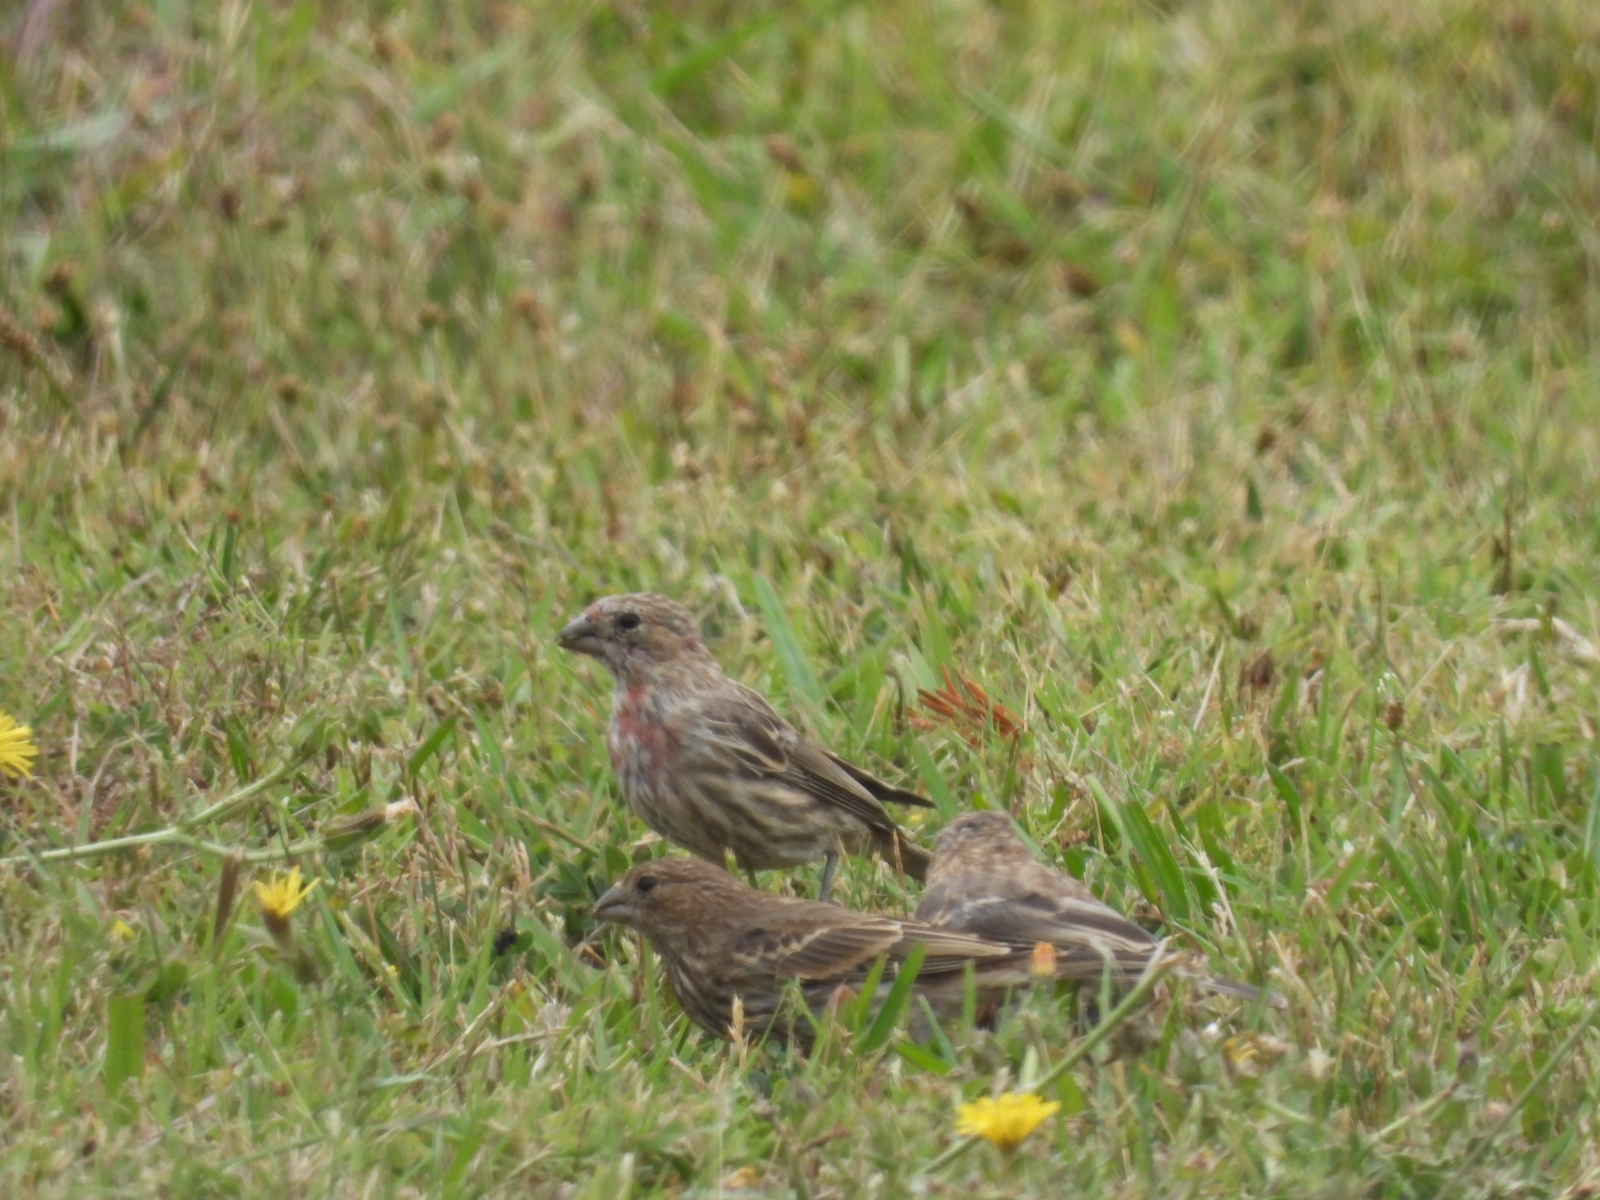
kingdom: Animalia
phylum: Chordata
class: Aves
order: Passeriformes
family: Fringillidae
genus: Haemorhous
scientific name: Haemorhous mexicanus
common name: House finch
